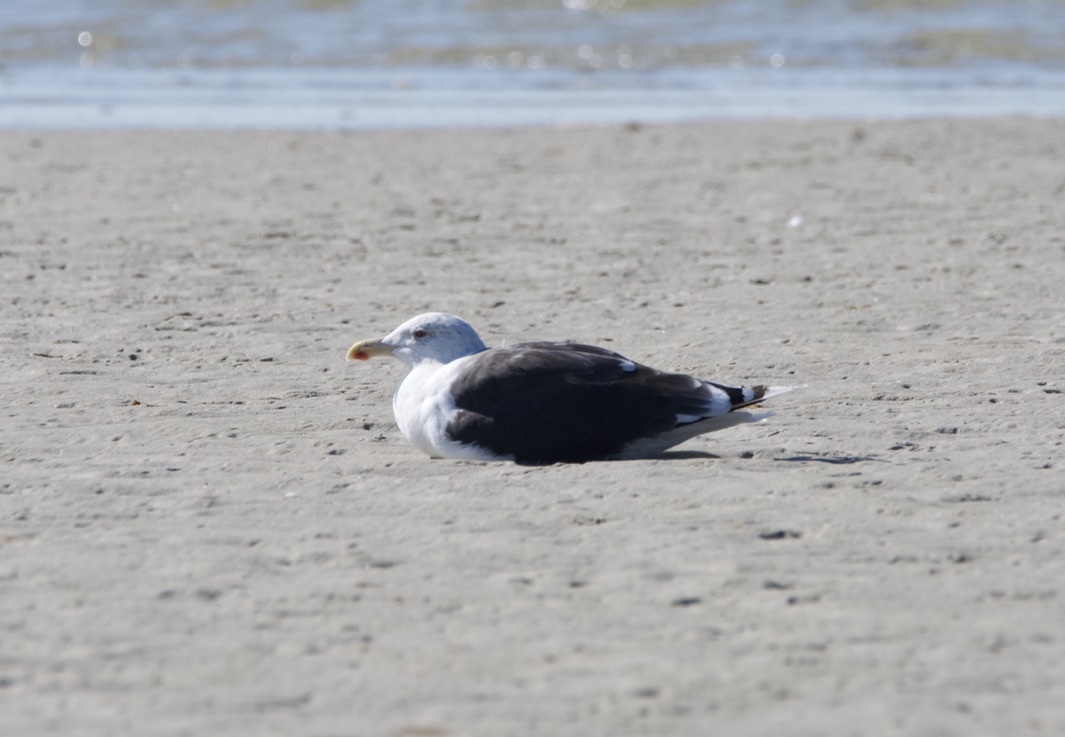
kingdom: Animalia
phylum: Chordata
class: Aves
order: Charadriiformes
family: Laridae
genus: Larus
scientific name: Larus marinus
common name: Great black-backed gull
